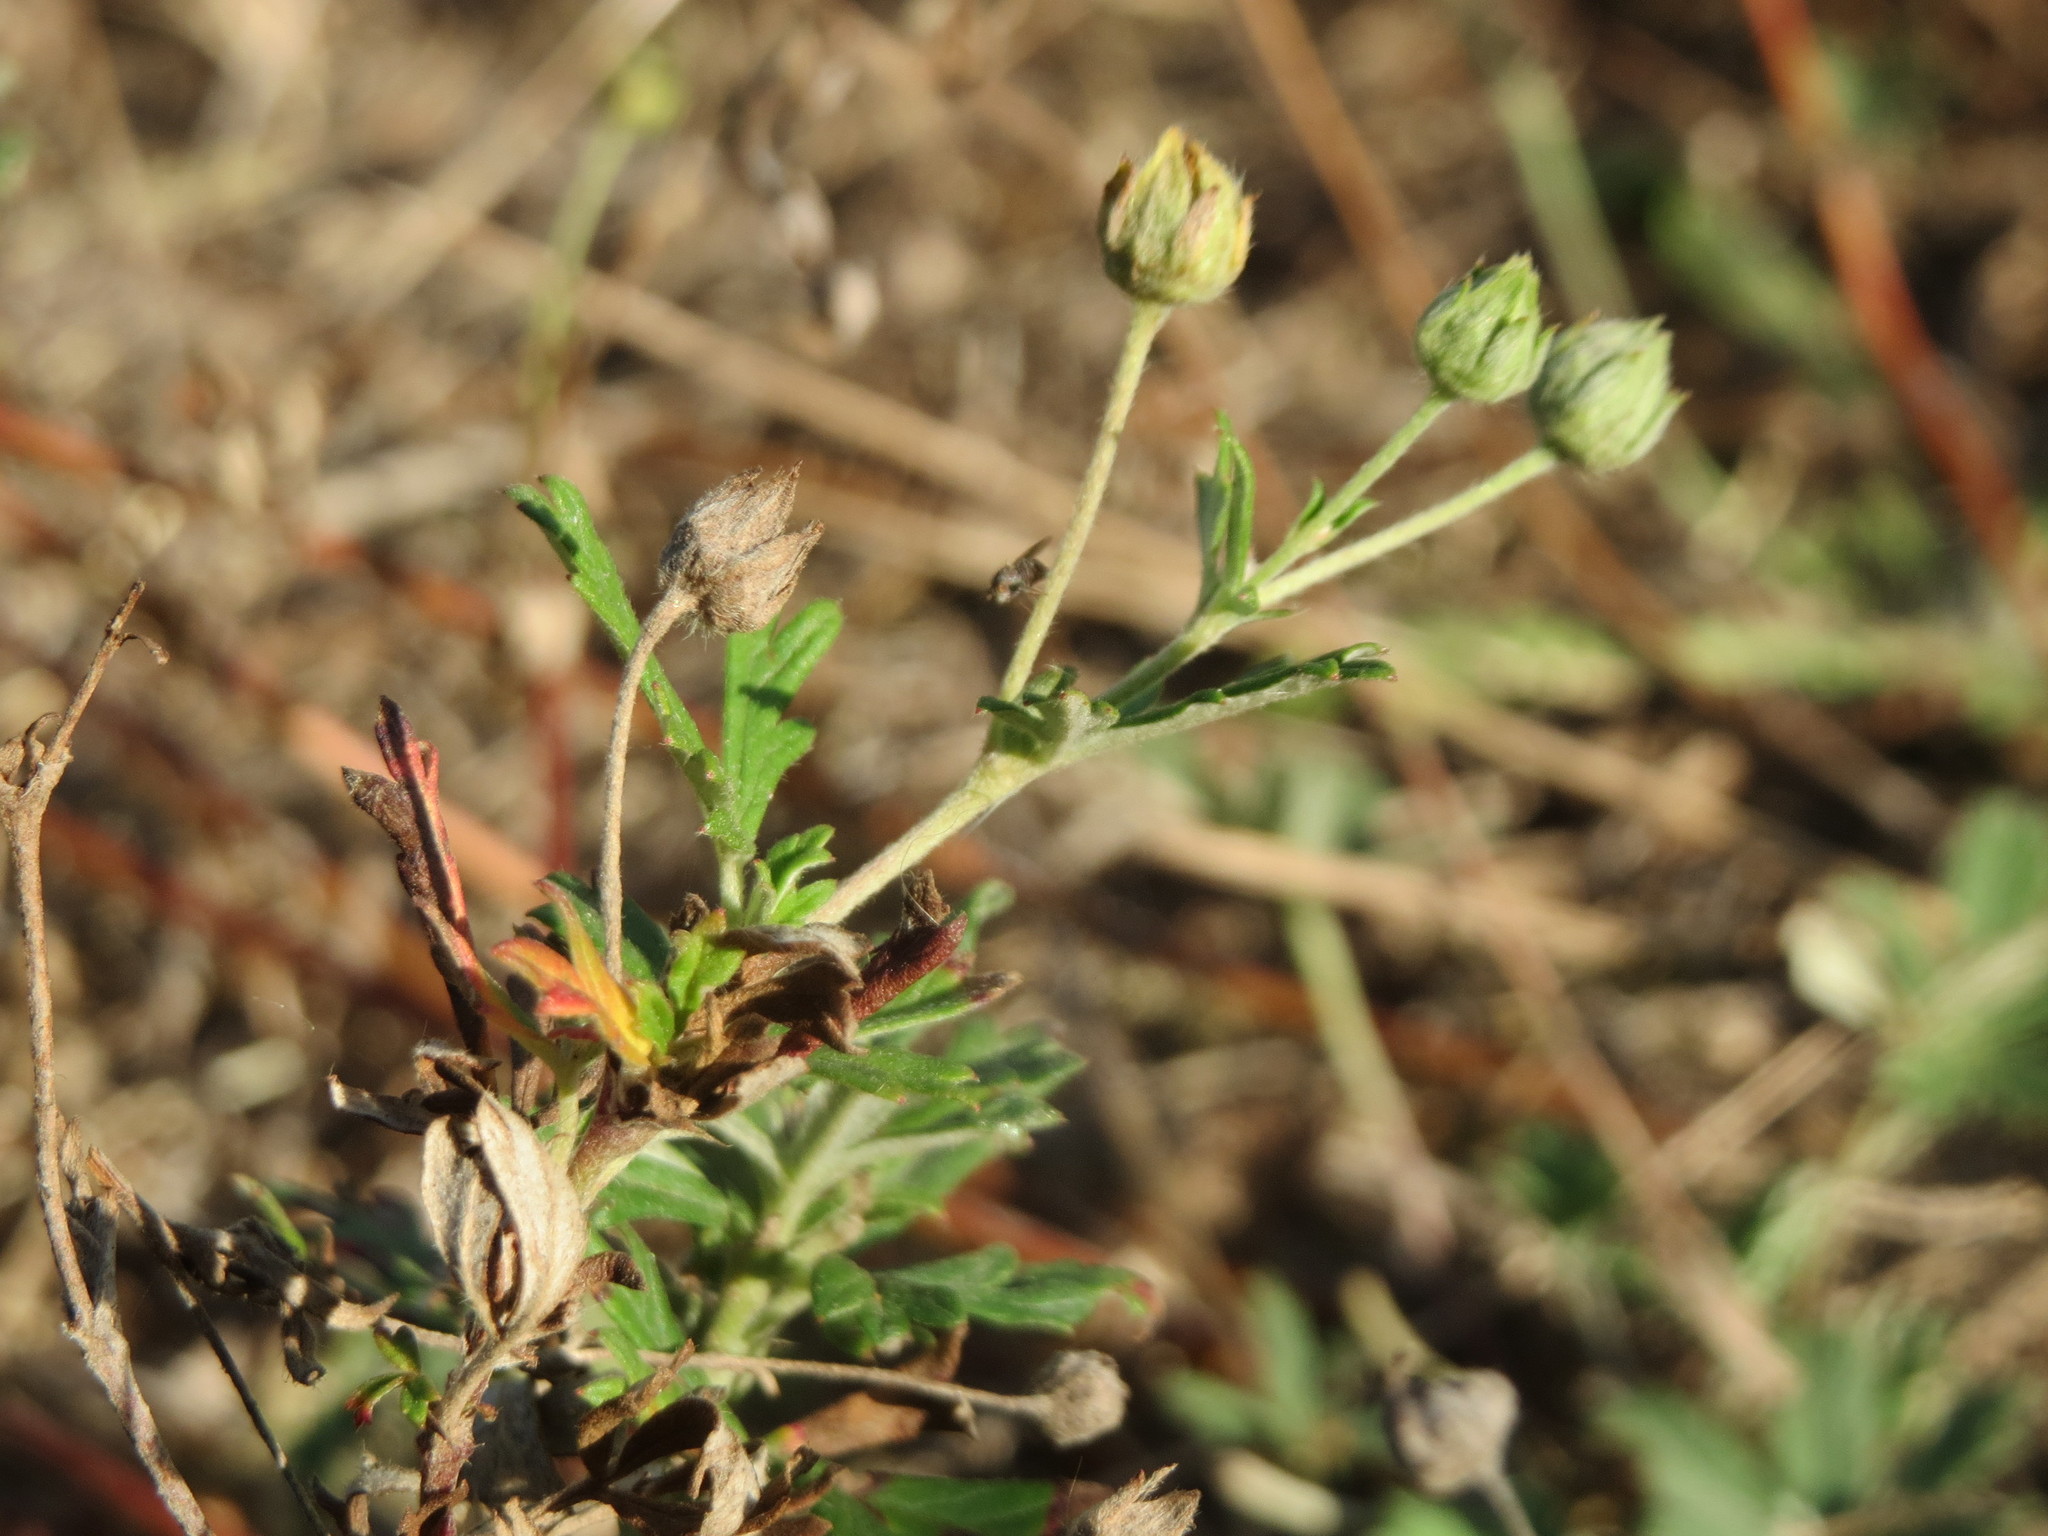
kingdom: Plantae
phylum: Tracheophyta
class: Magnoliopsida
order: Rosales
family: Rosaceae
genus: Potentilla
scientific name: Potentilla argentea
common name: Hoary cinquefoil
